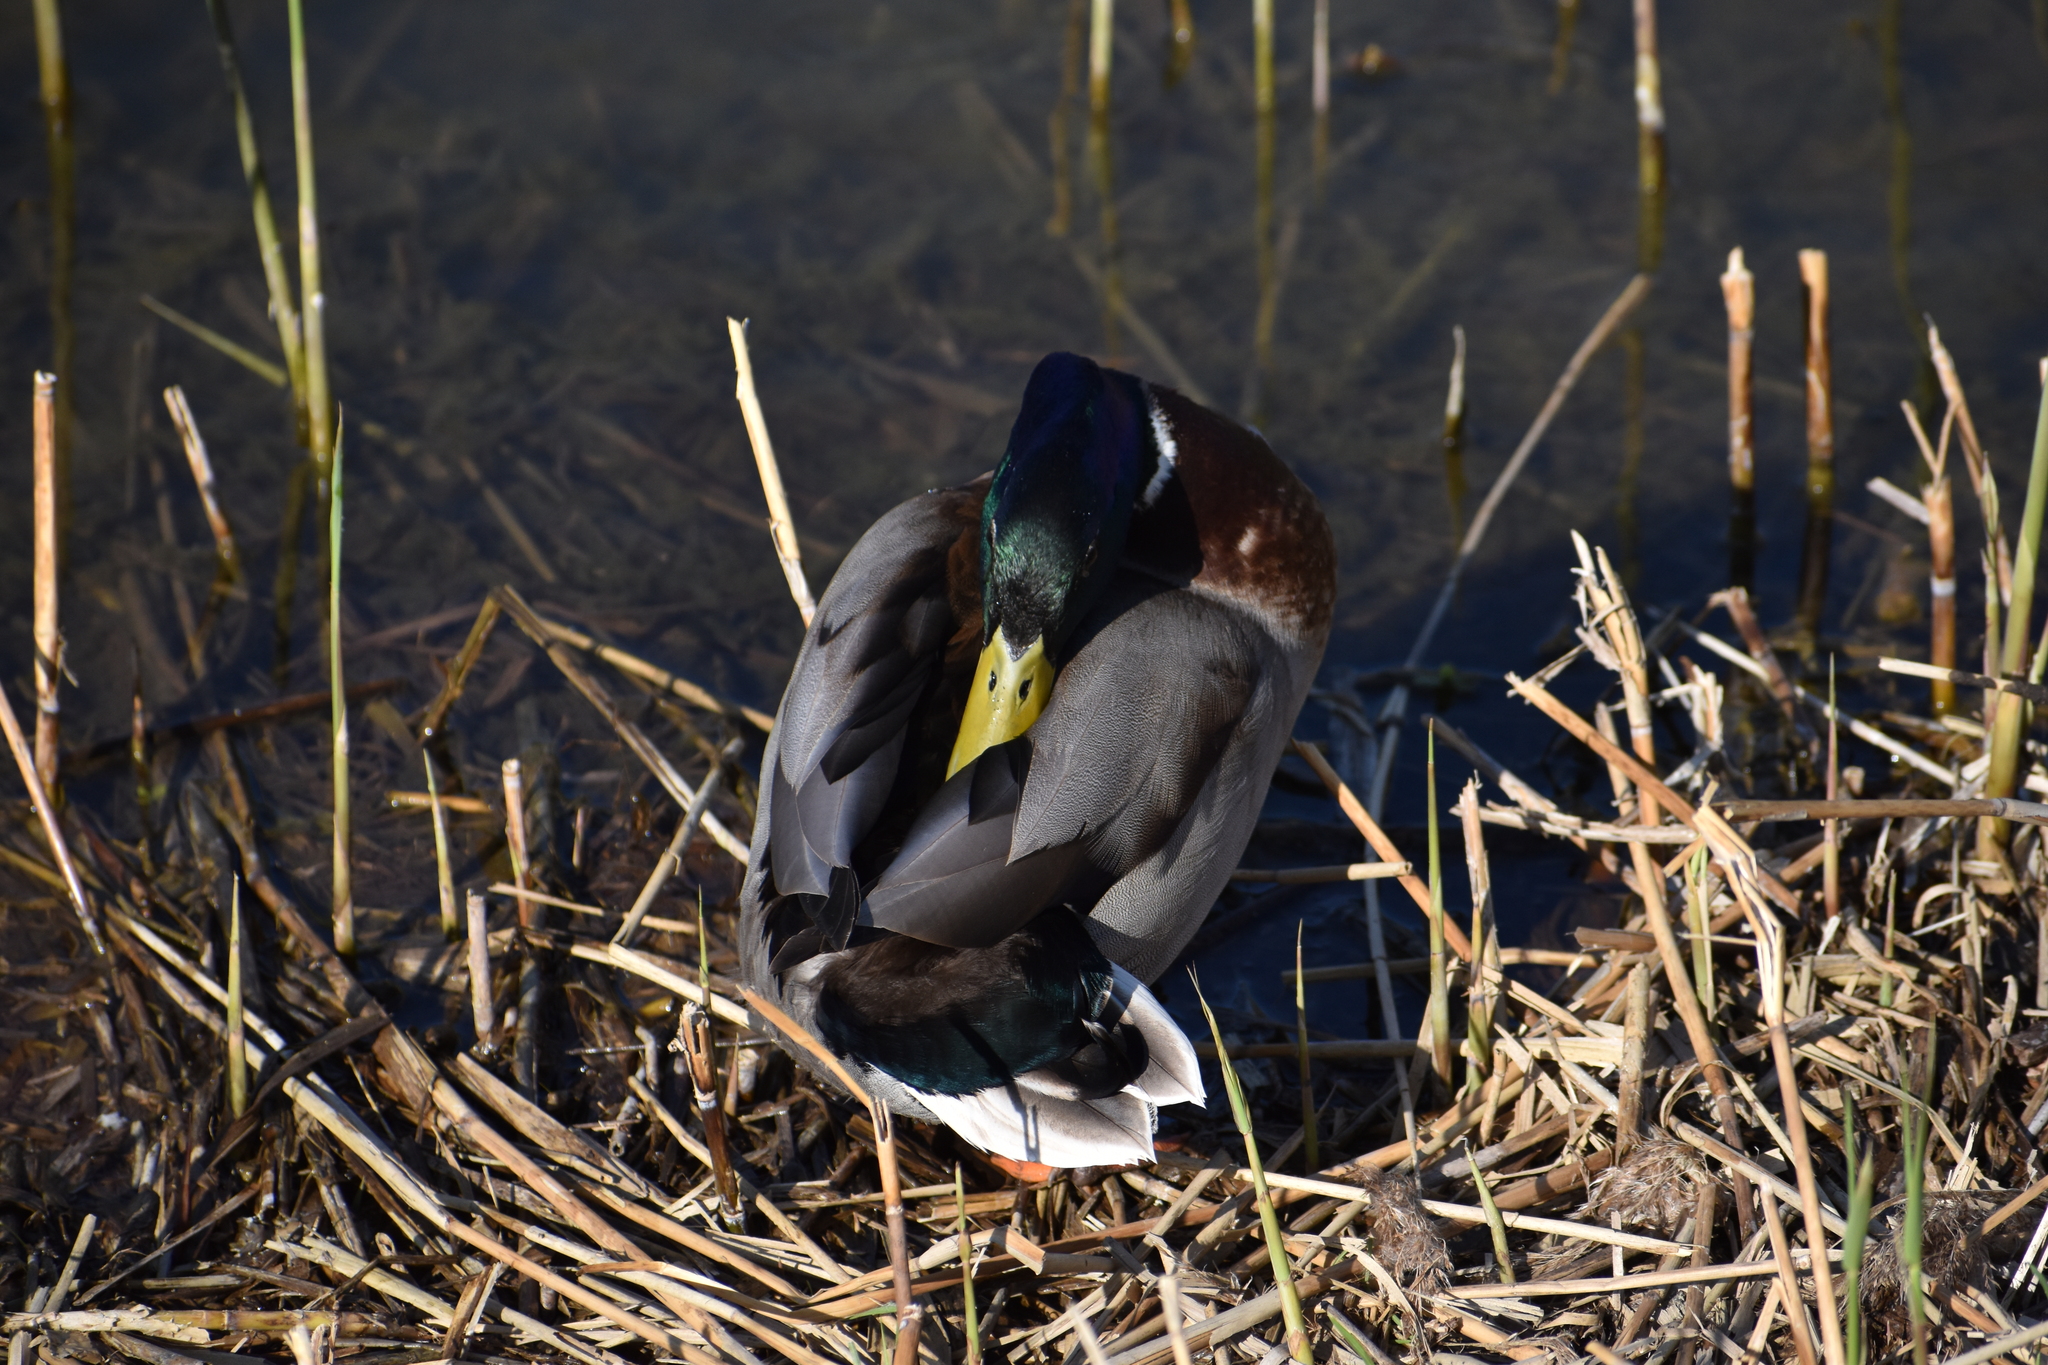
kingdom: Animalia
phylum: Chordata
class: Aves
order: Anseriformes
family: Anatidae
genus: Anas
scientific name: Anas platyrhynchos
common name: Mallard
